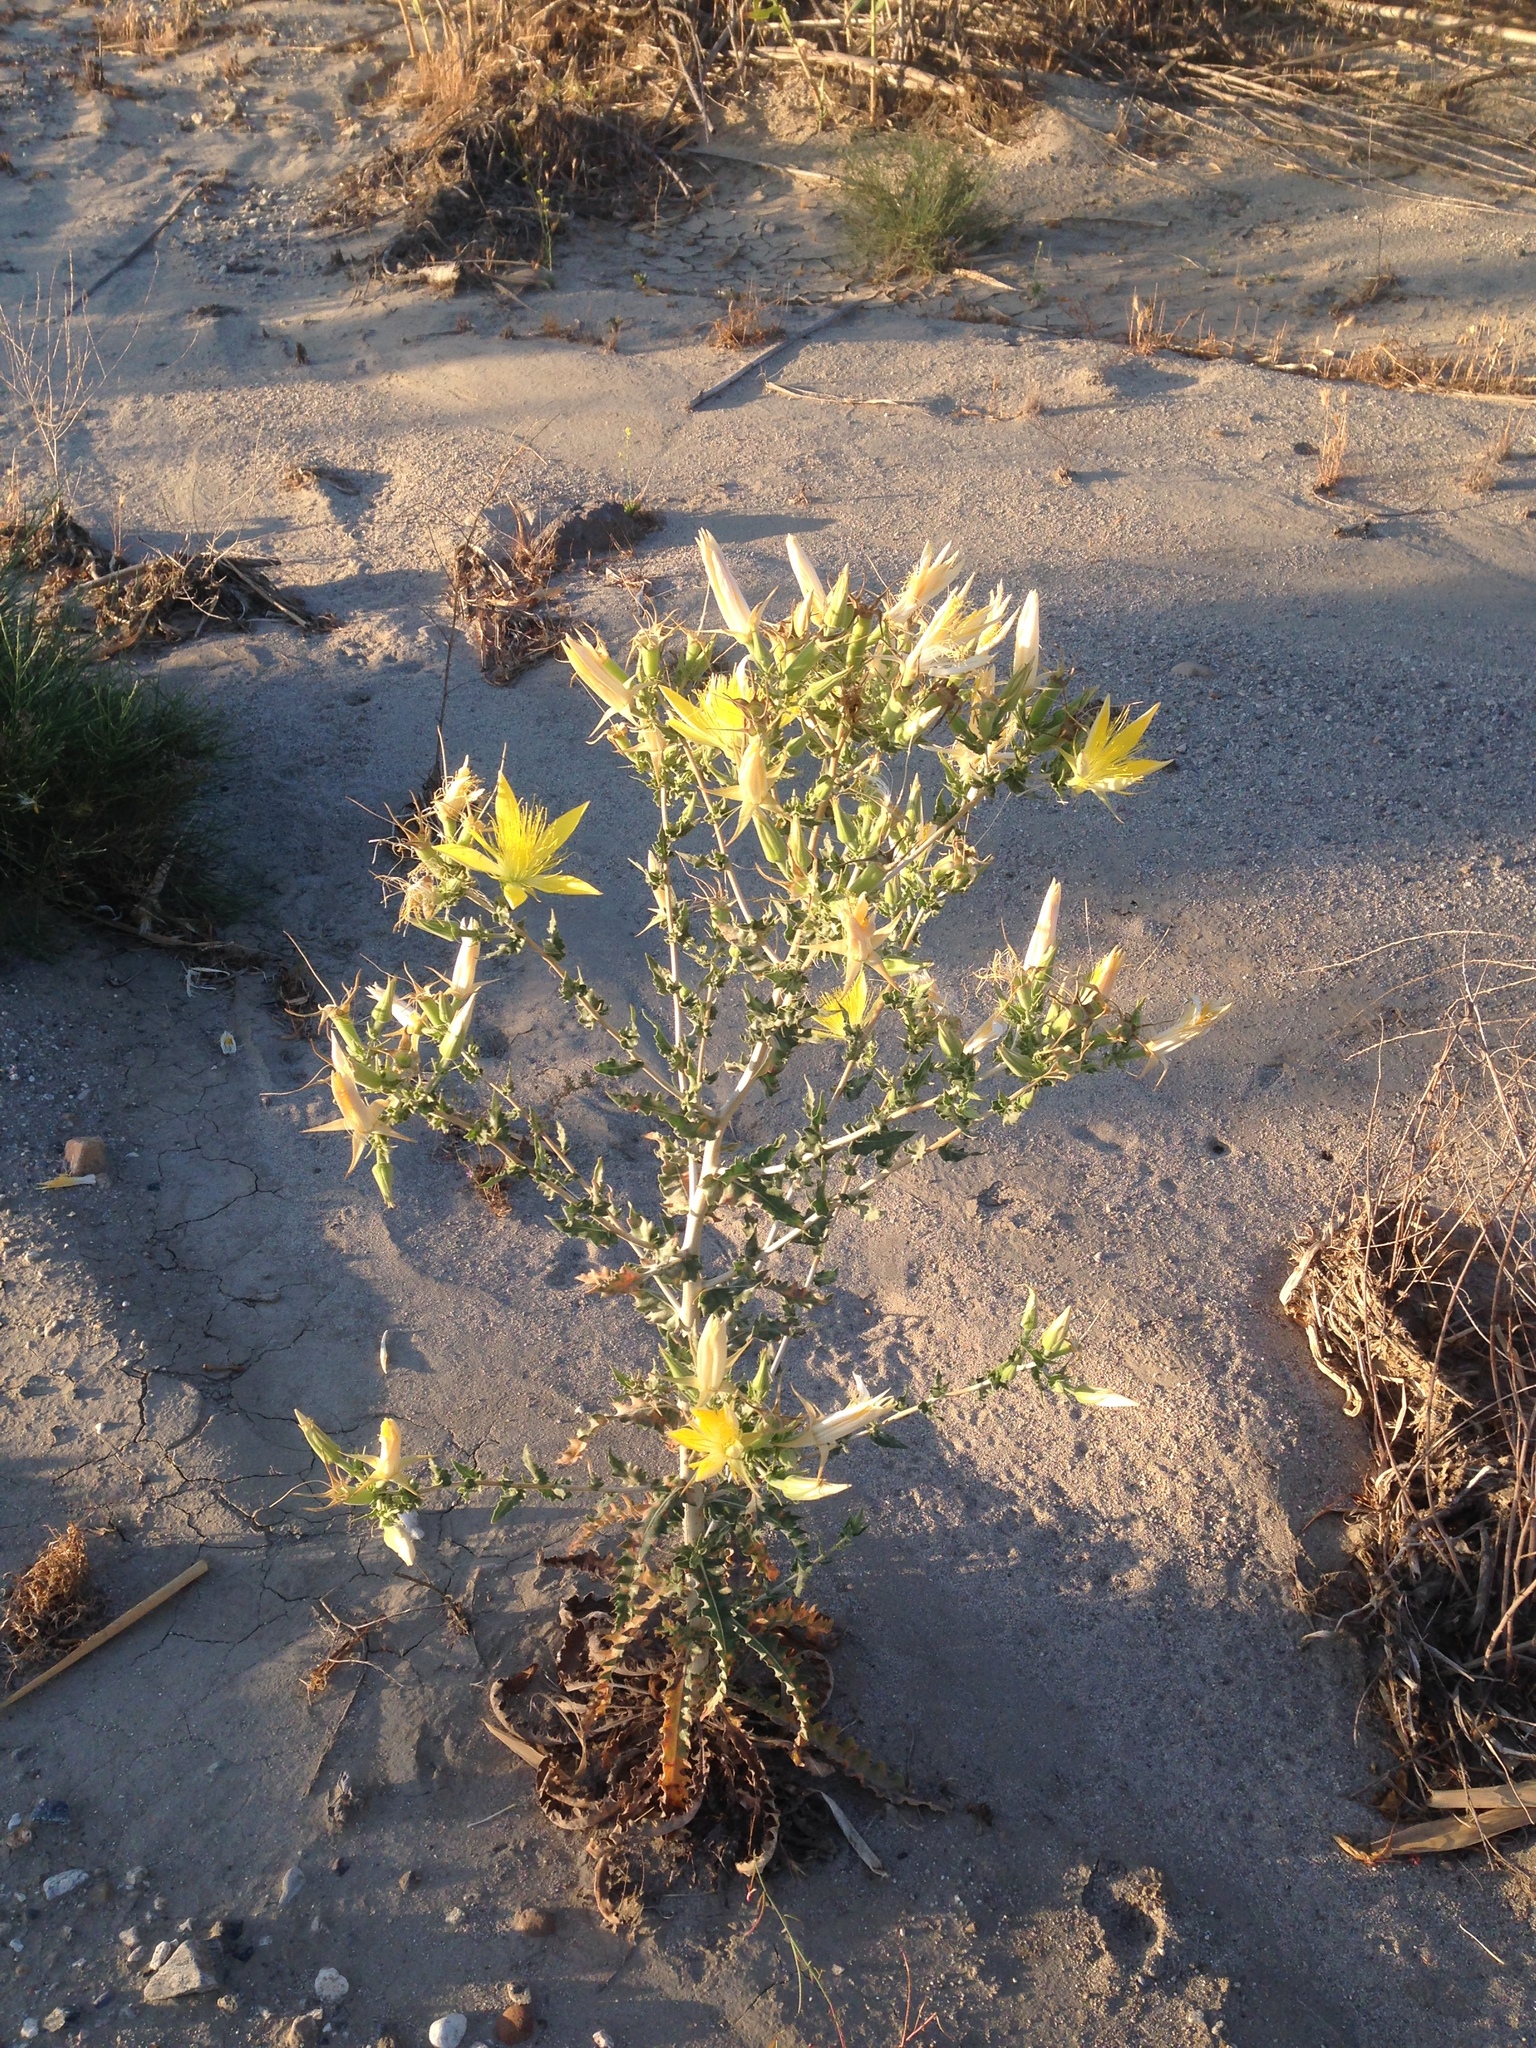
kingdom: Plantae
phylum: Tracheophyta
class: Magnoliopsida
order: Cornales
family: Loasaceae
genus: Mentzelia
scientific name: Mentzelia laevicaulis
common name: Smooth-stem blazingstar
